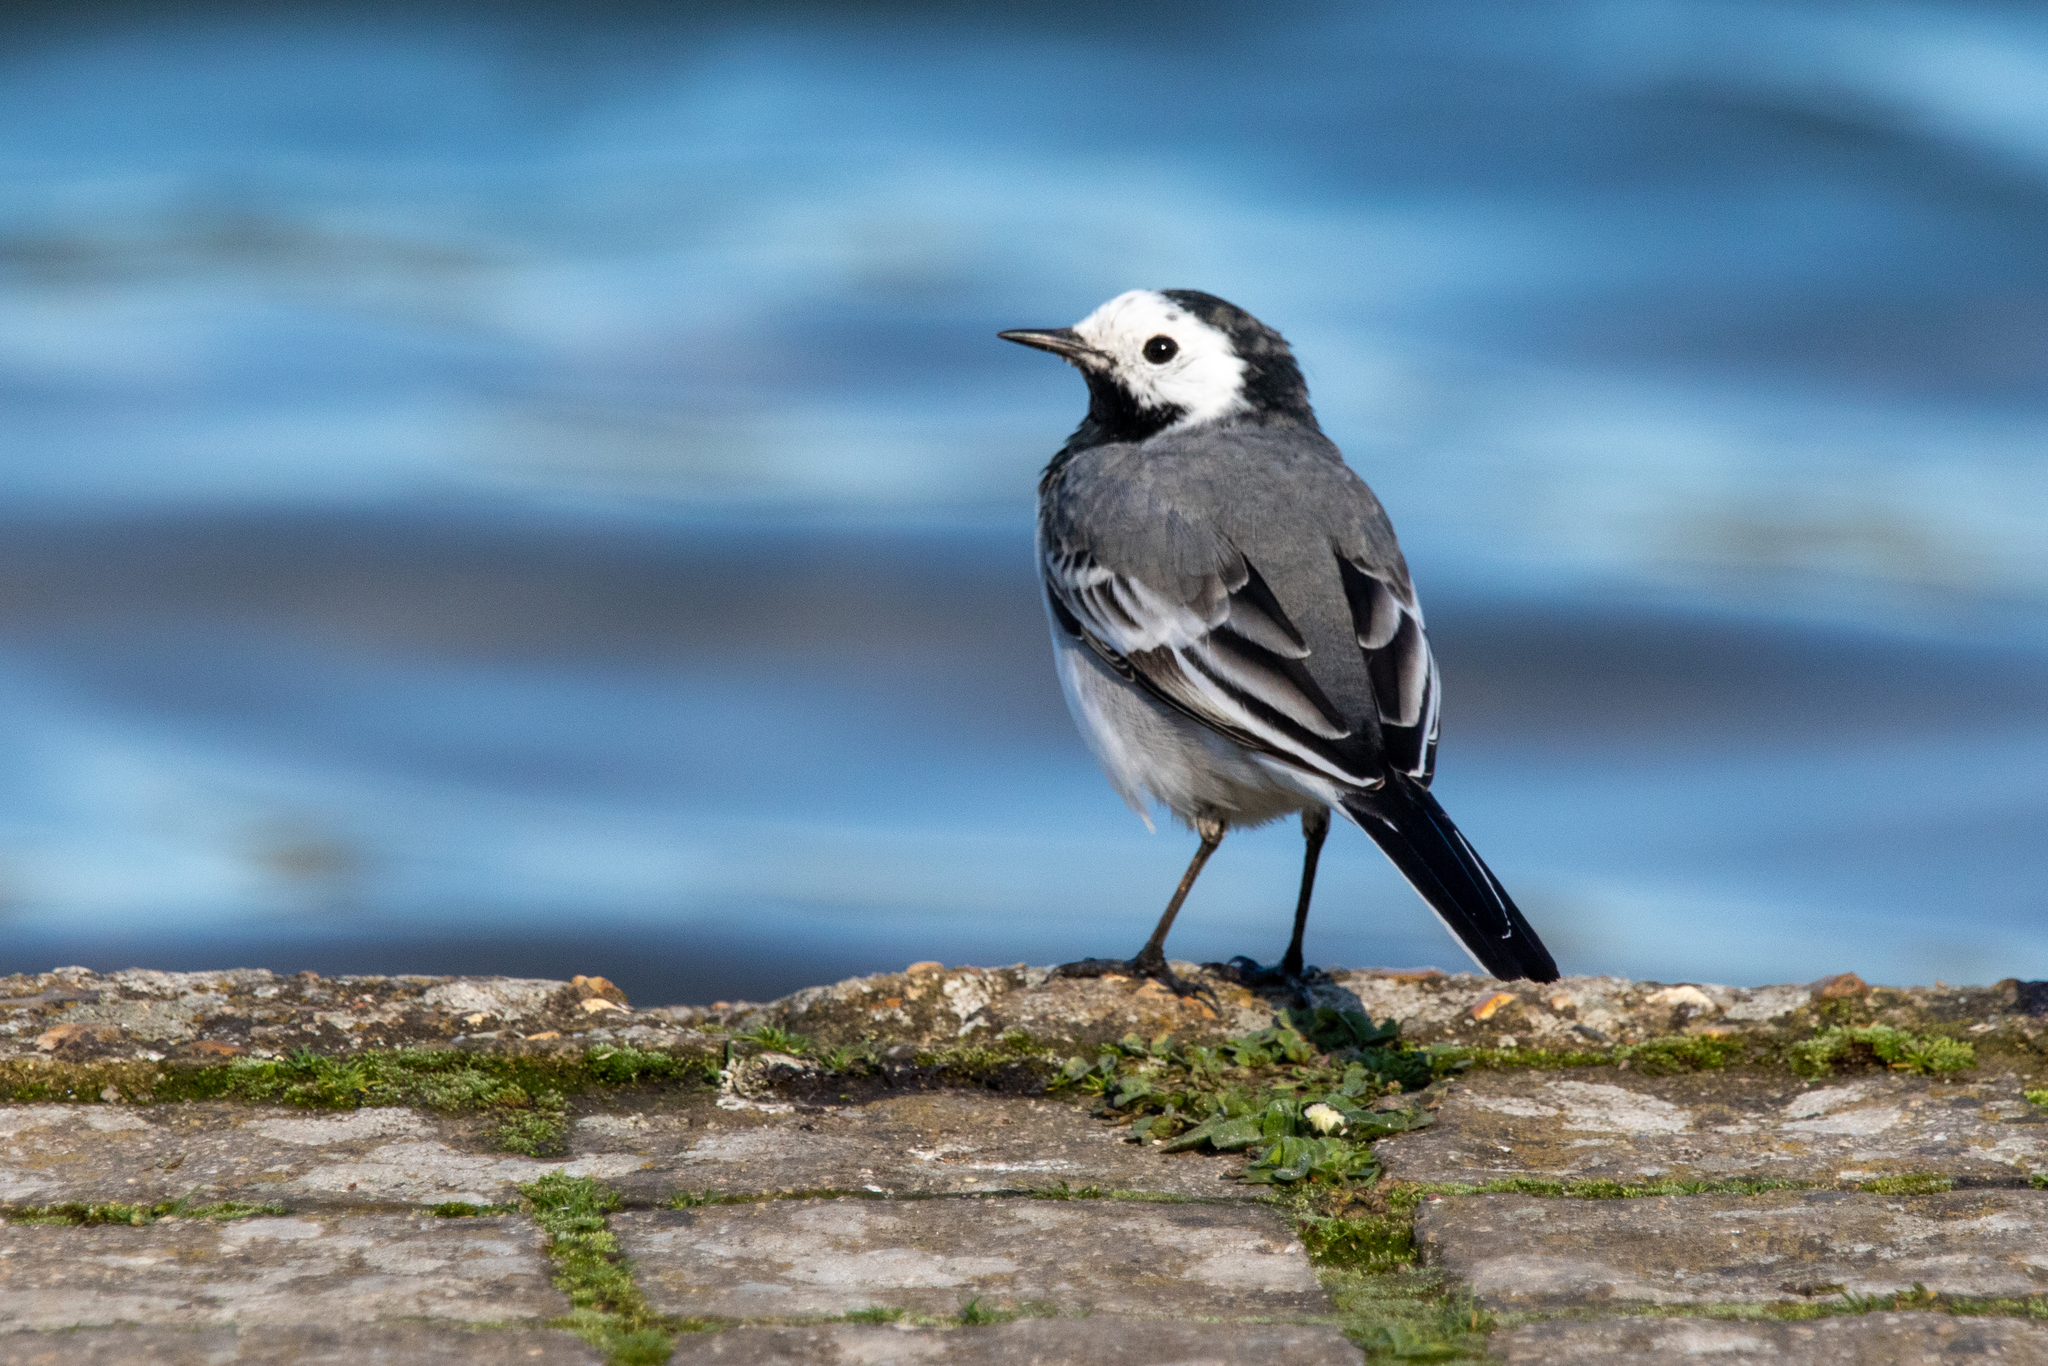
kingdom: Animalia
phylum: Chordata
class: Aves
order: Passeriformes
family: Motacillidae
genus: Motacilla
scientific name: Motacilla alba
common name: White wagtail
